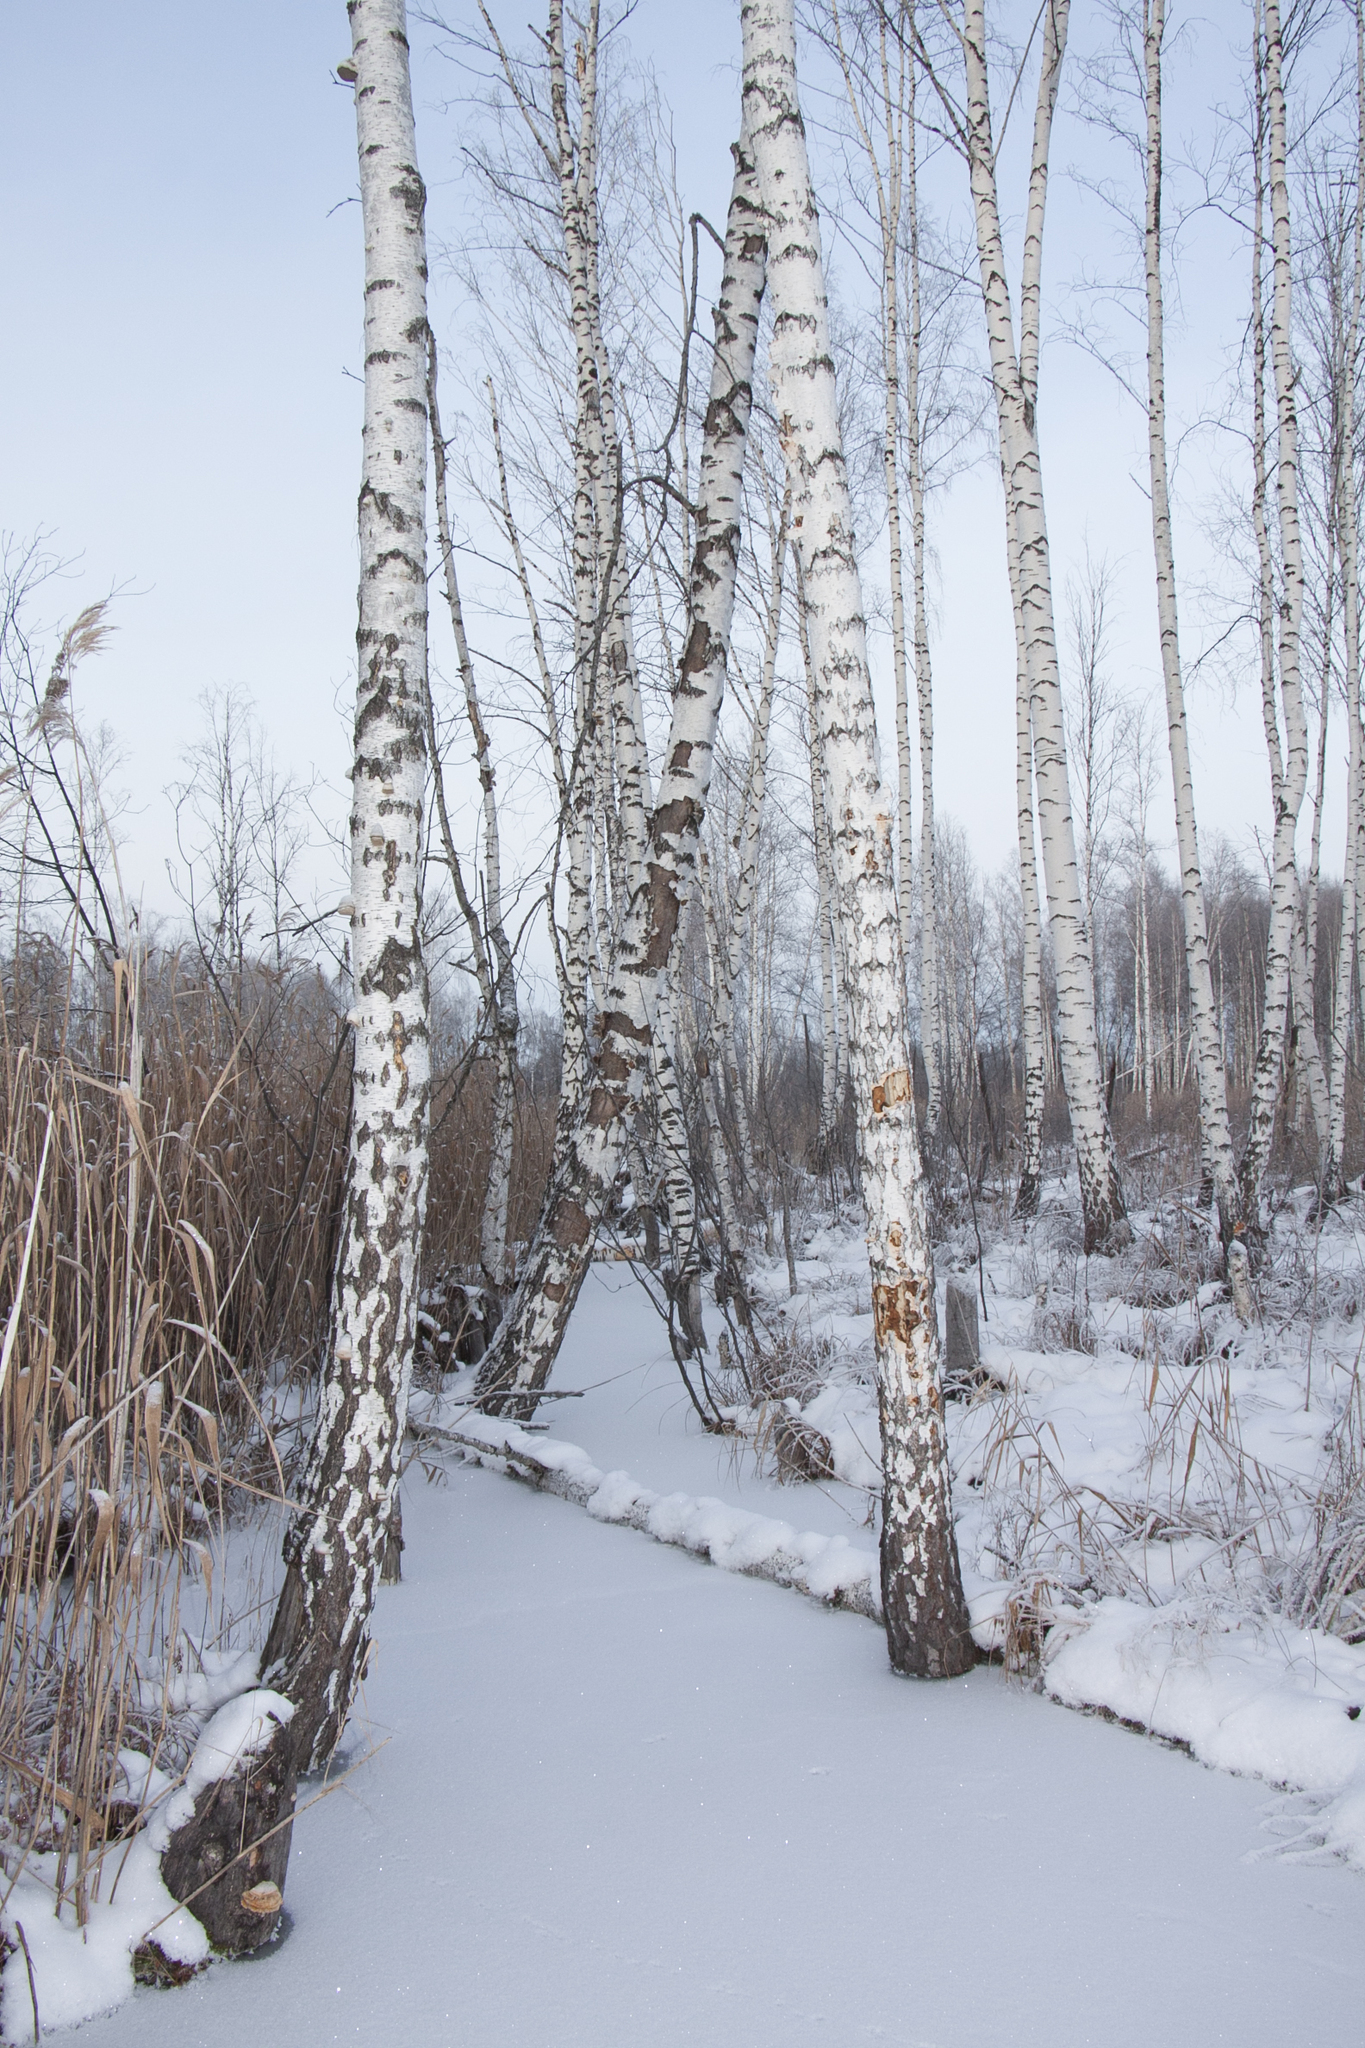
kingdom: Plantae
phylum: Tracheophyta
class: Magnoliopsida
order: Fagales
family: Betulaceae
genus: Betula
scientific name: Betula pendula
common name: Silver birch
